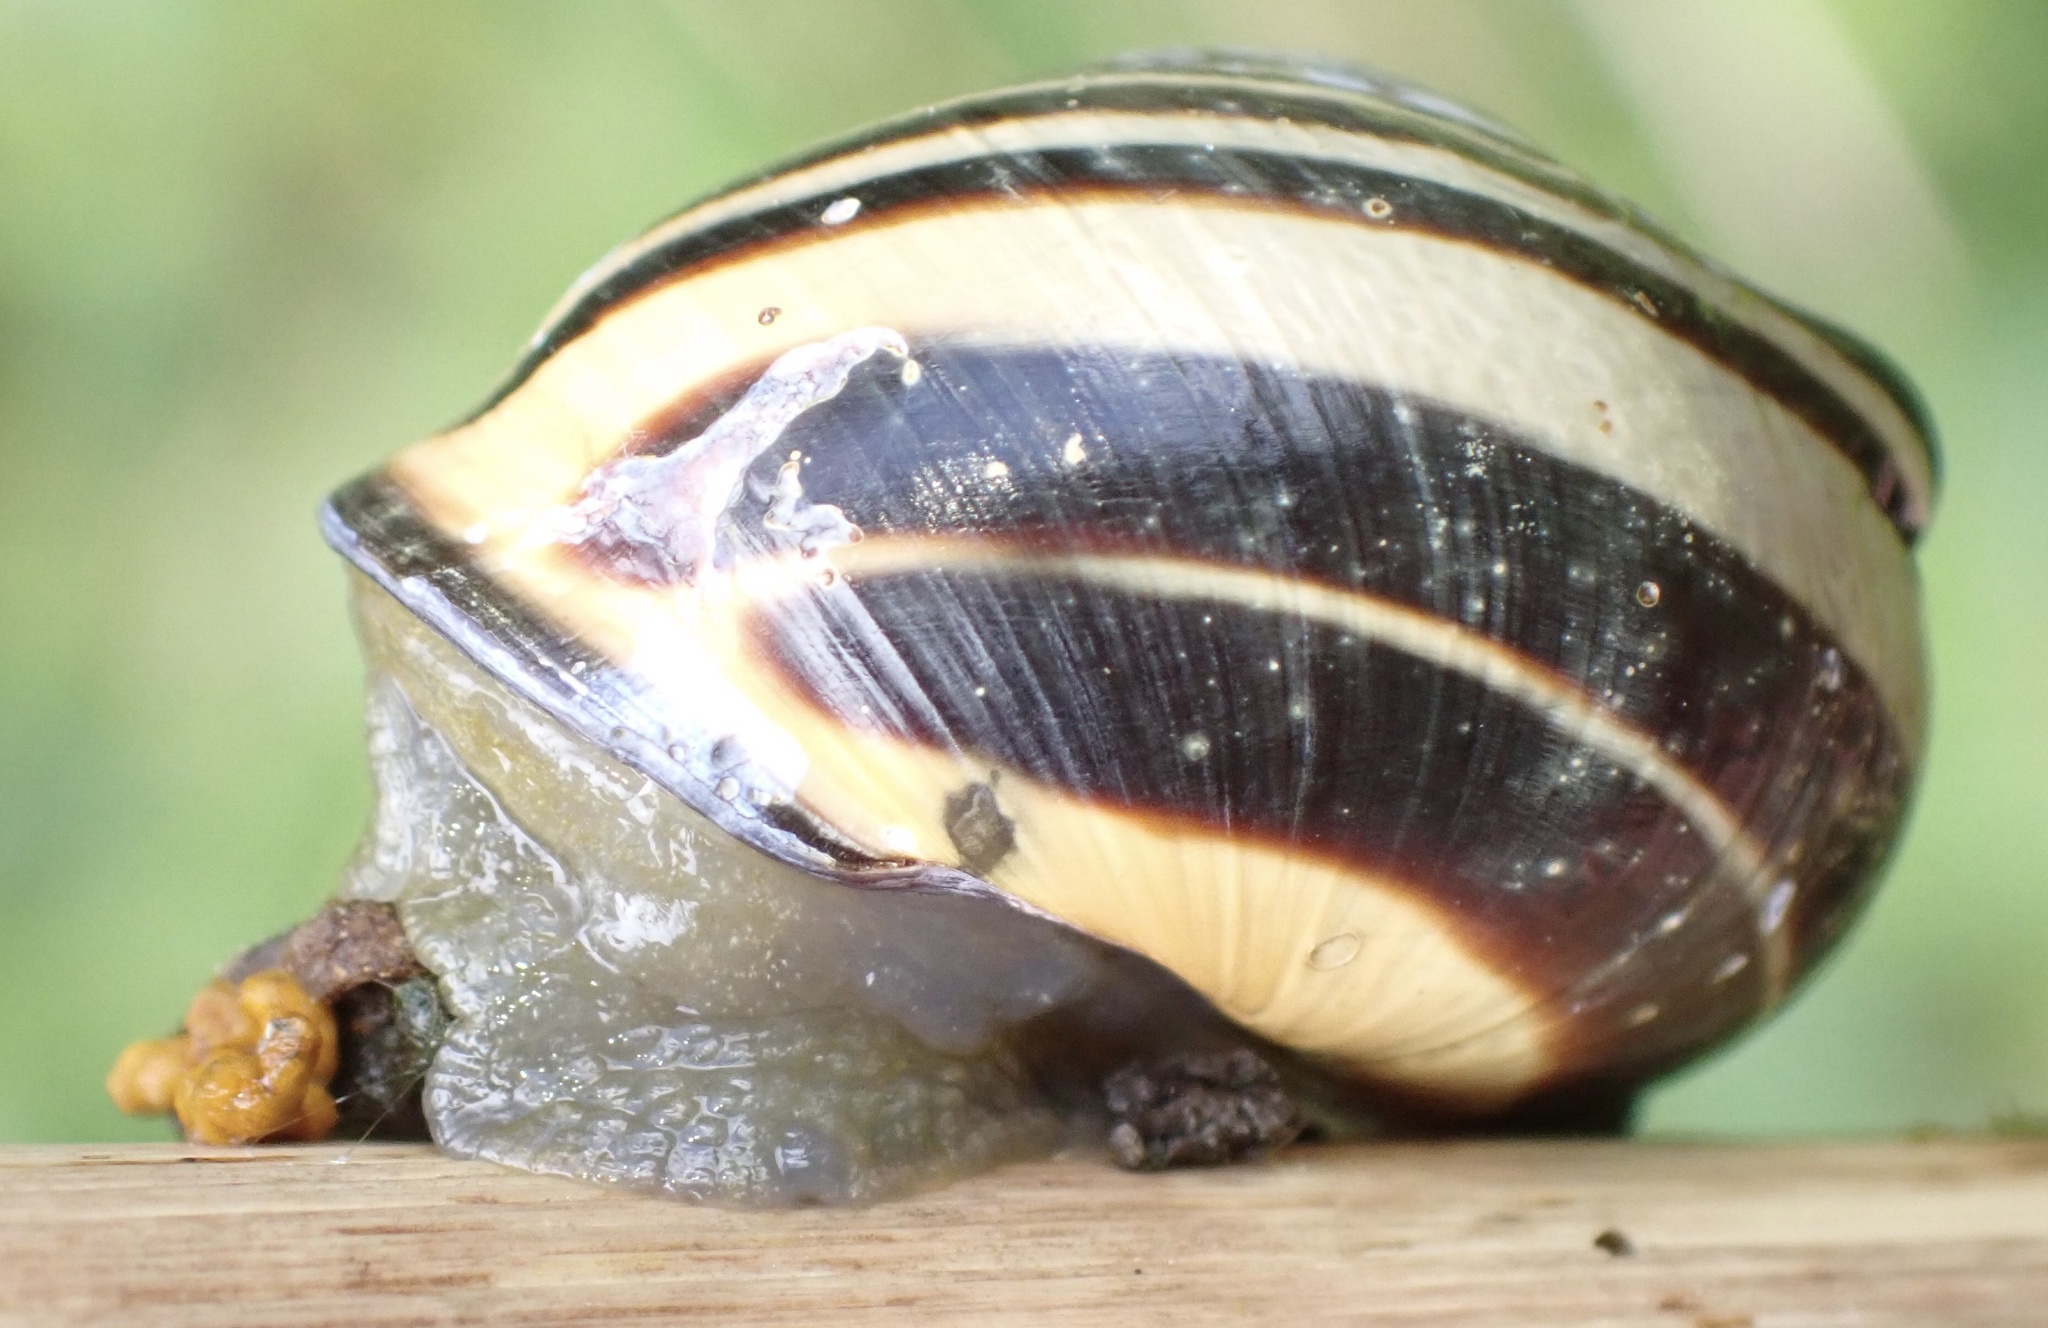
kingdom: Animalia
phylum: Mollusca
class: Gastropoda
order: Stylommatophora
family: Helicidae
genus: Cepaea
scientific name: Cepaea nemoralis
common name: Grovesnail
